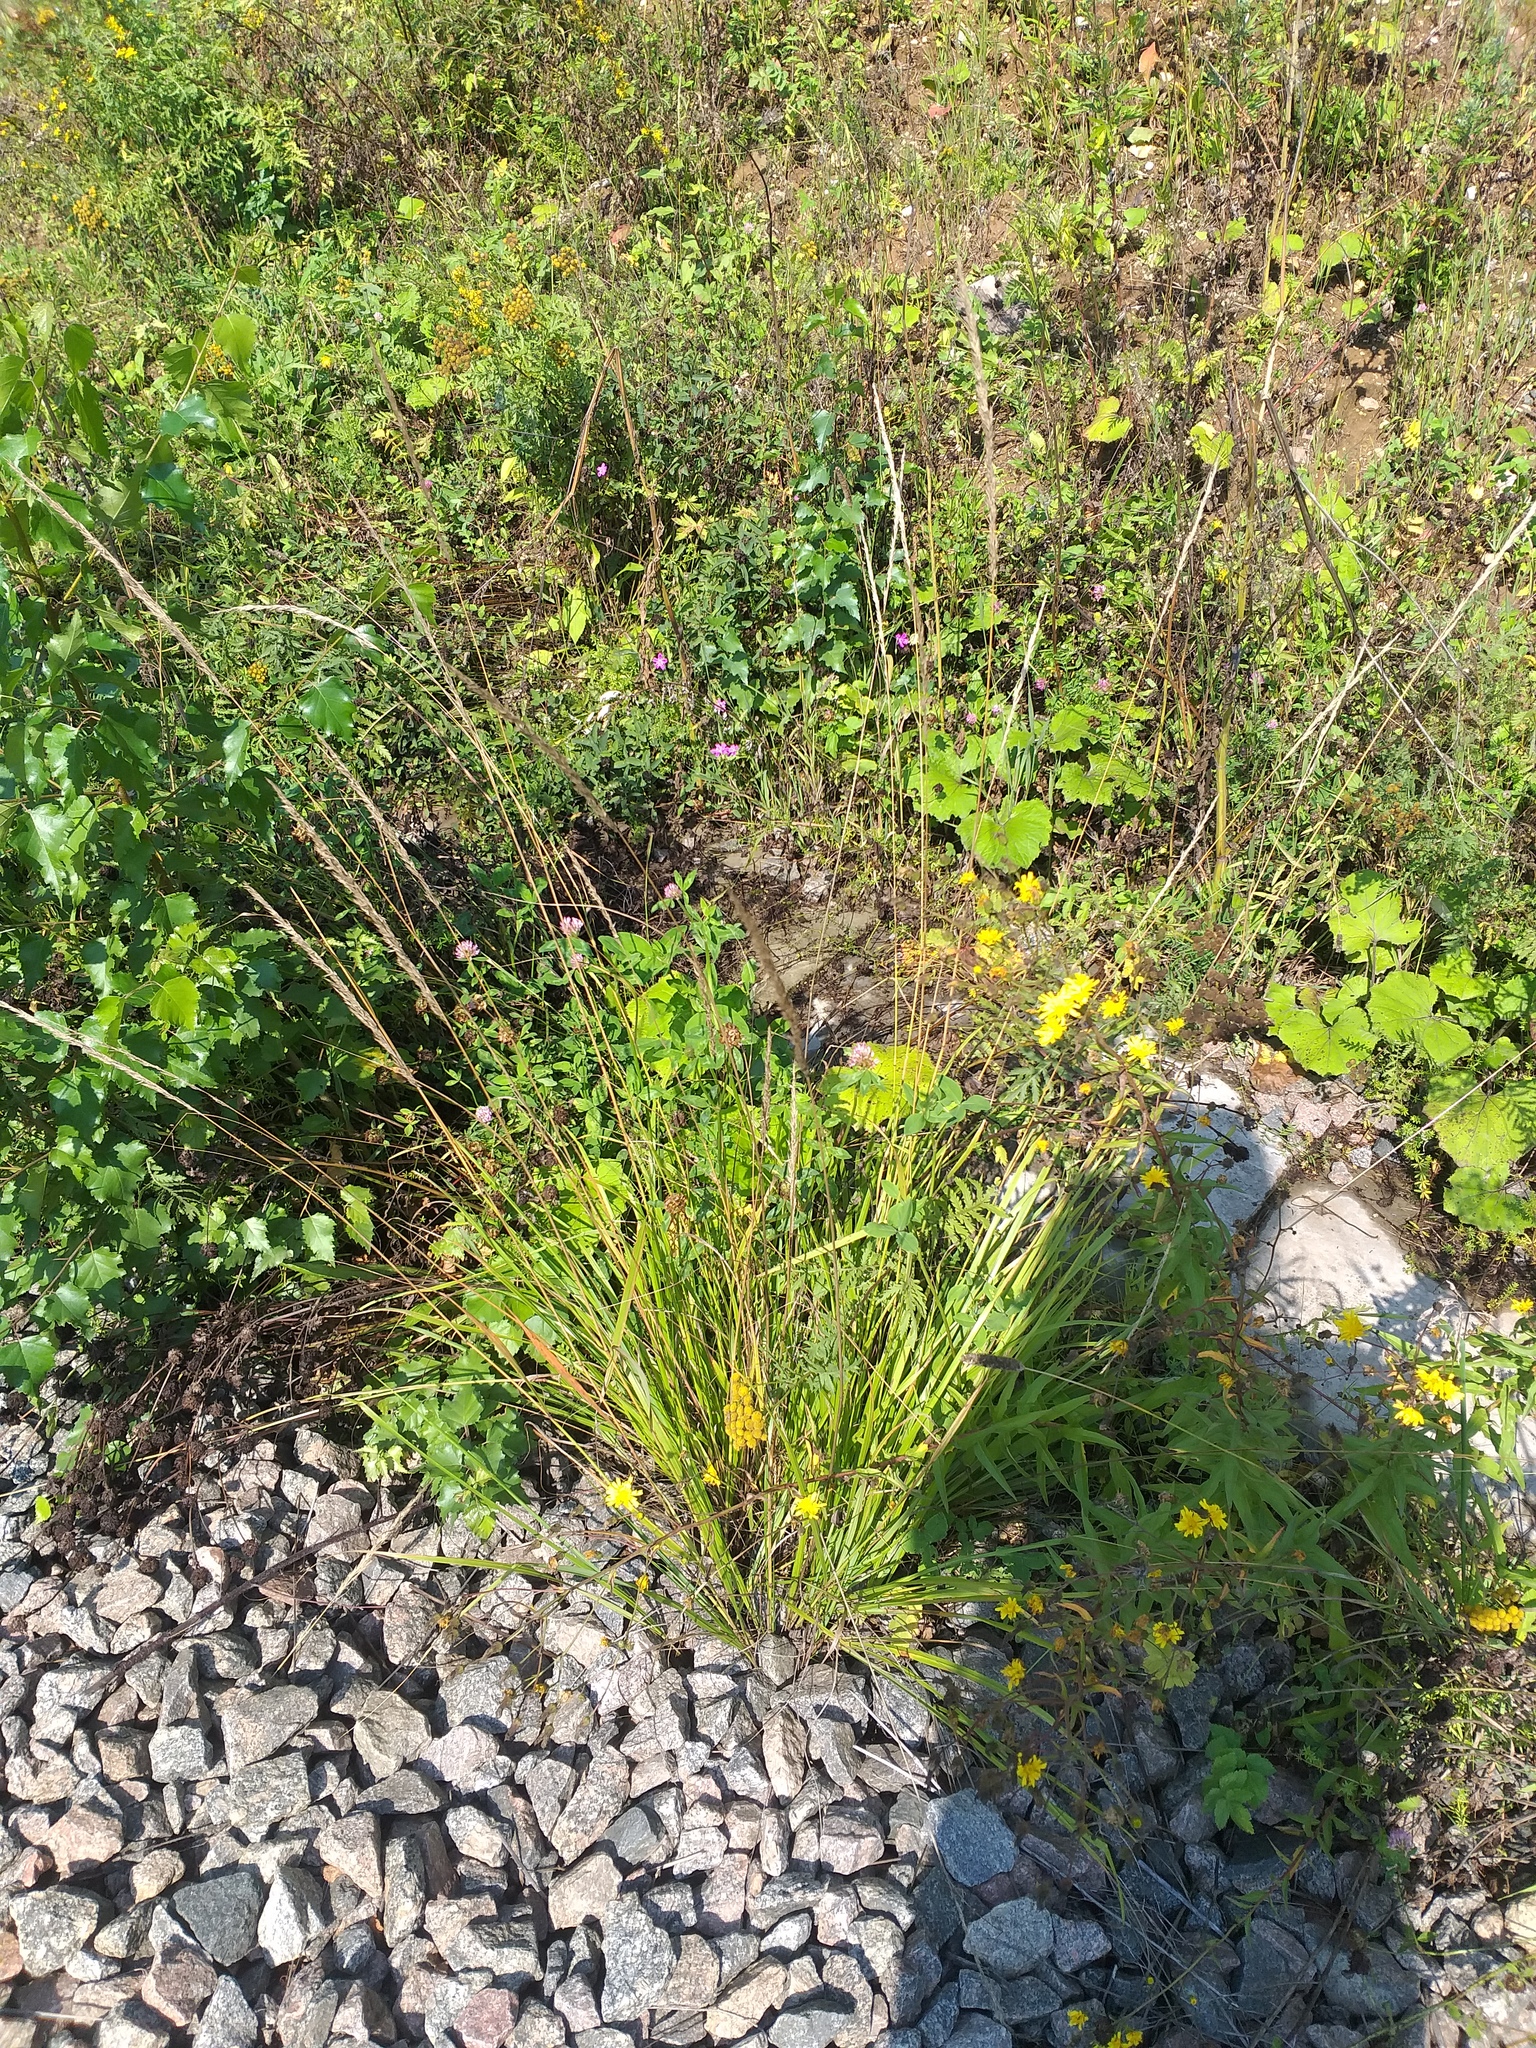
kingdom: Plantae
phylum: Tracheophyta
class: Liliopsida
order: Poales
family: Poaceae
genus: Calamagrostis
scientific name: Calamagrostis arundinacea
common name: Metskastik
